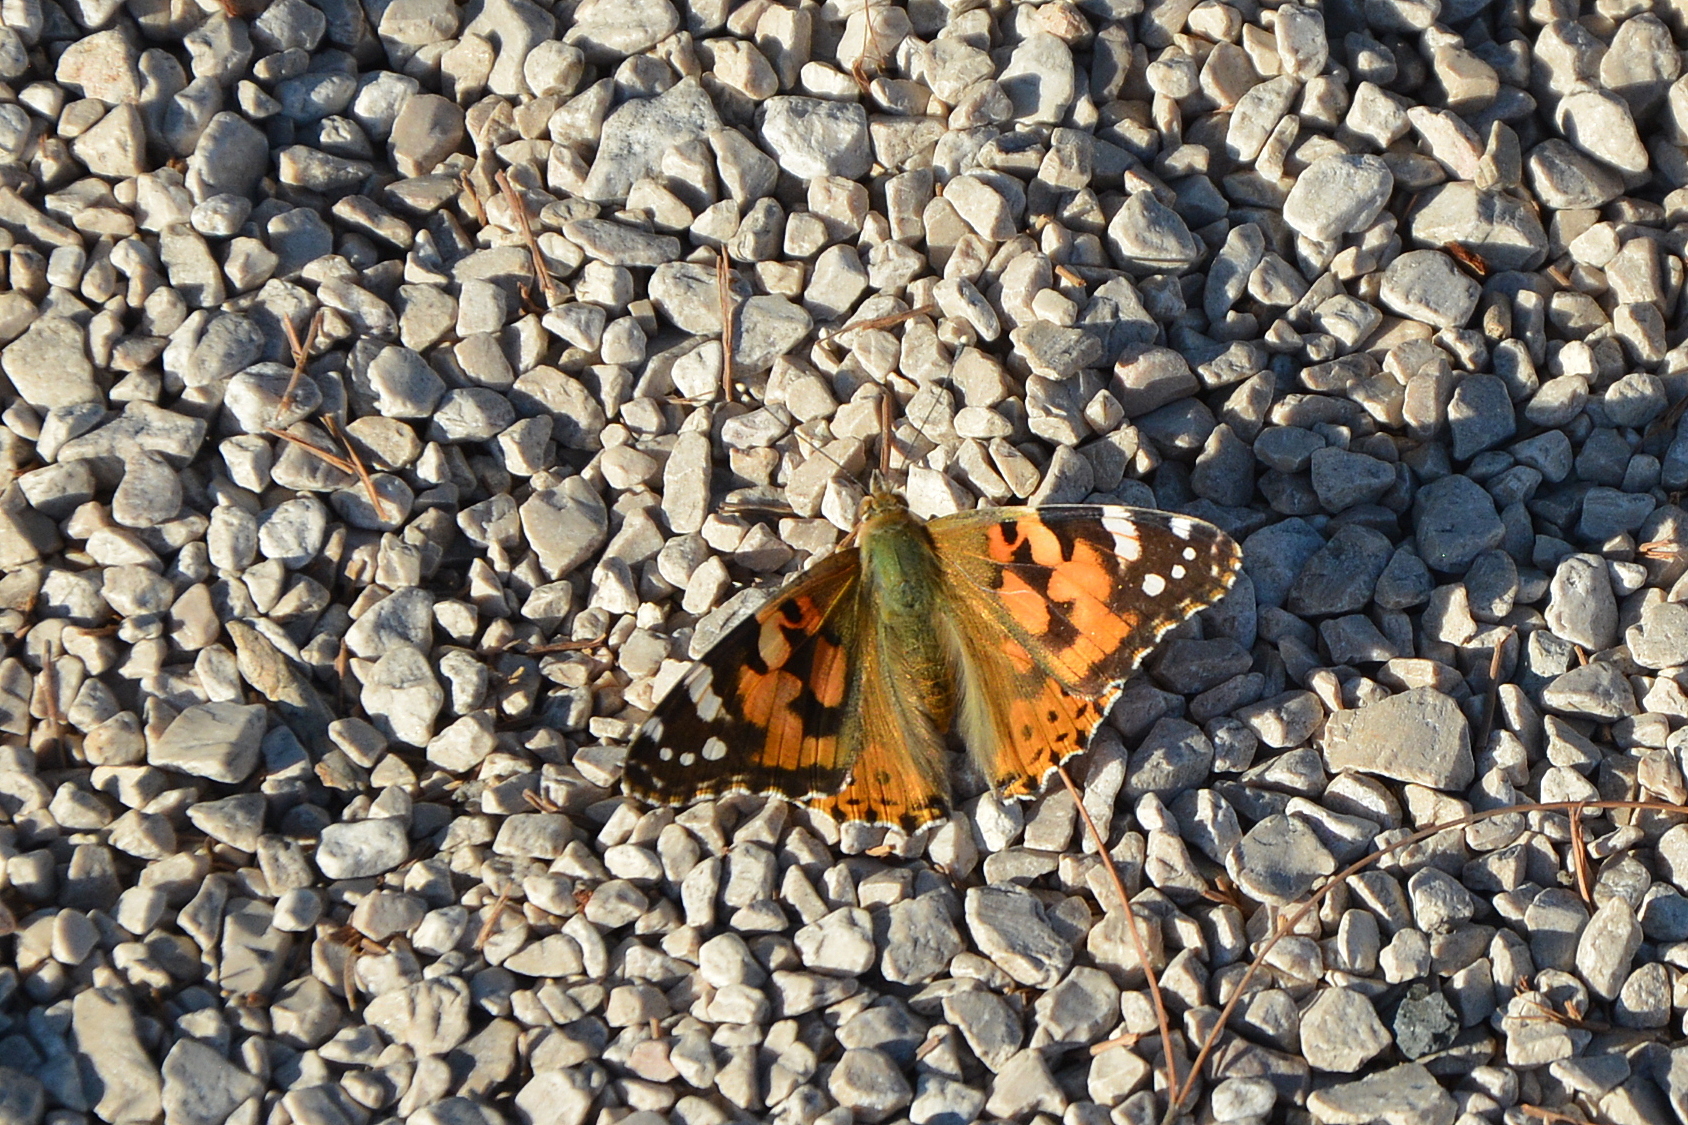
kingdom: Animalia
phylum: Arthropoda
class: Insecta
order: Lepidoptera
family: Nymphalidae
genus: Vanessa
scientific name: Vanessa cardui
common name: Painted lady
